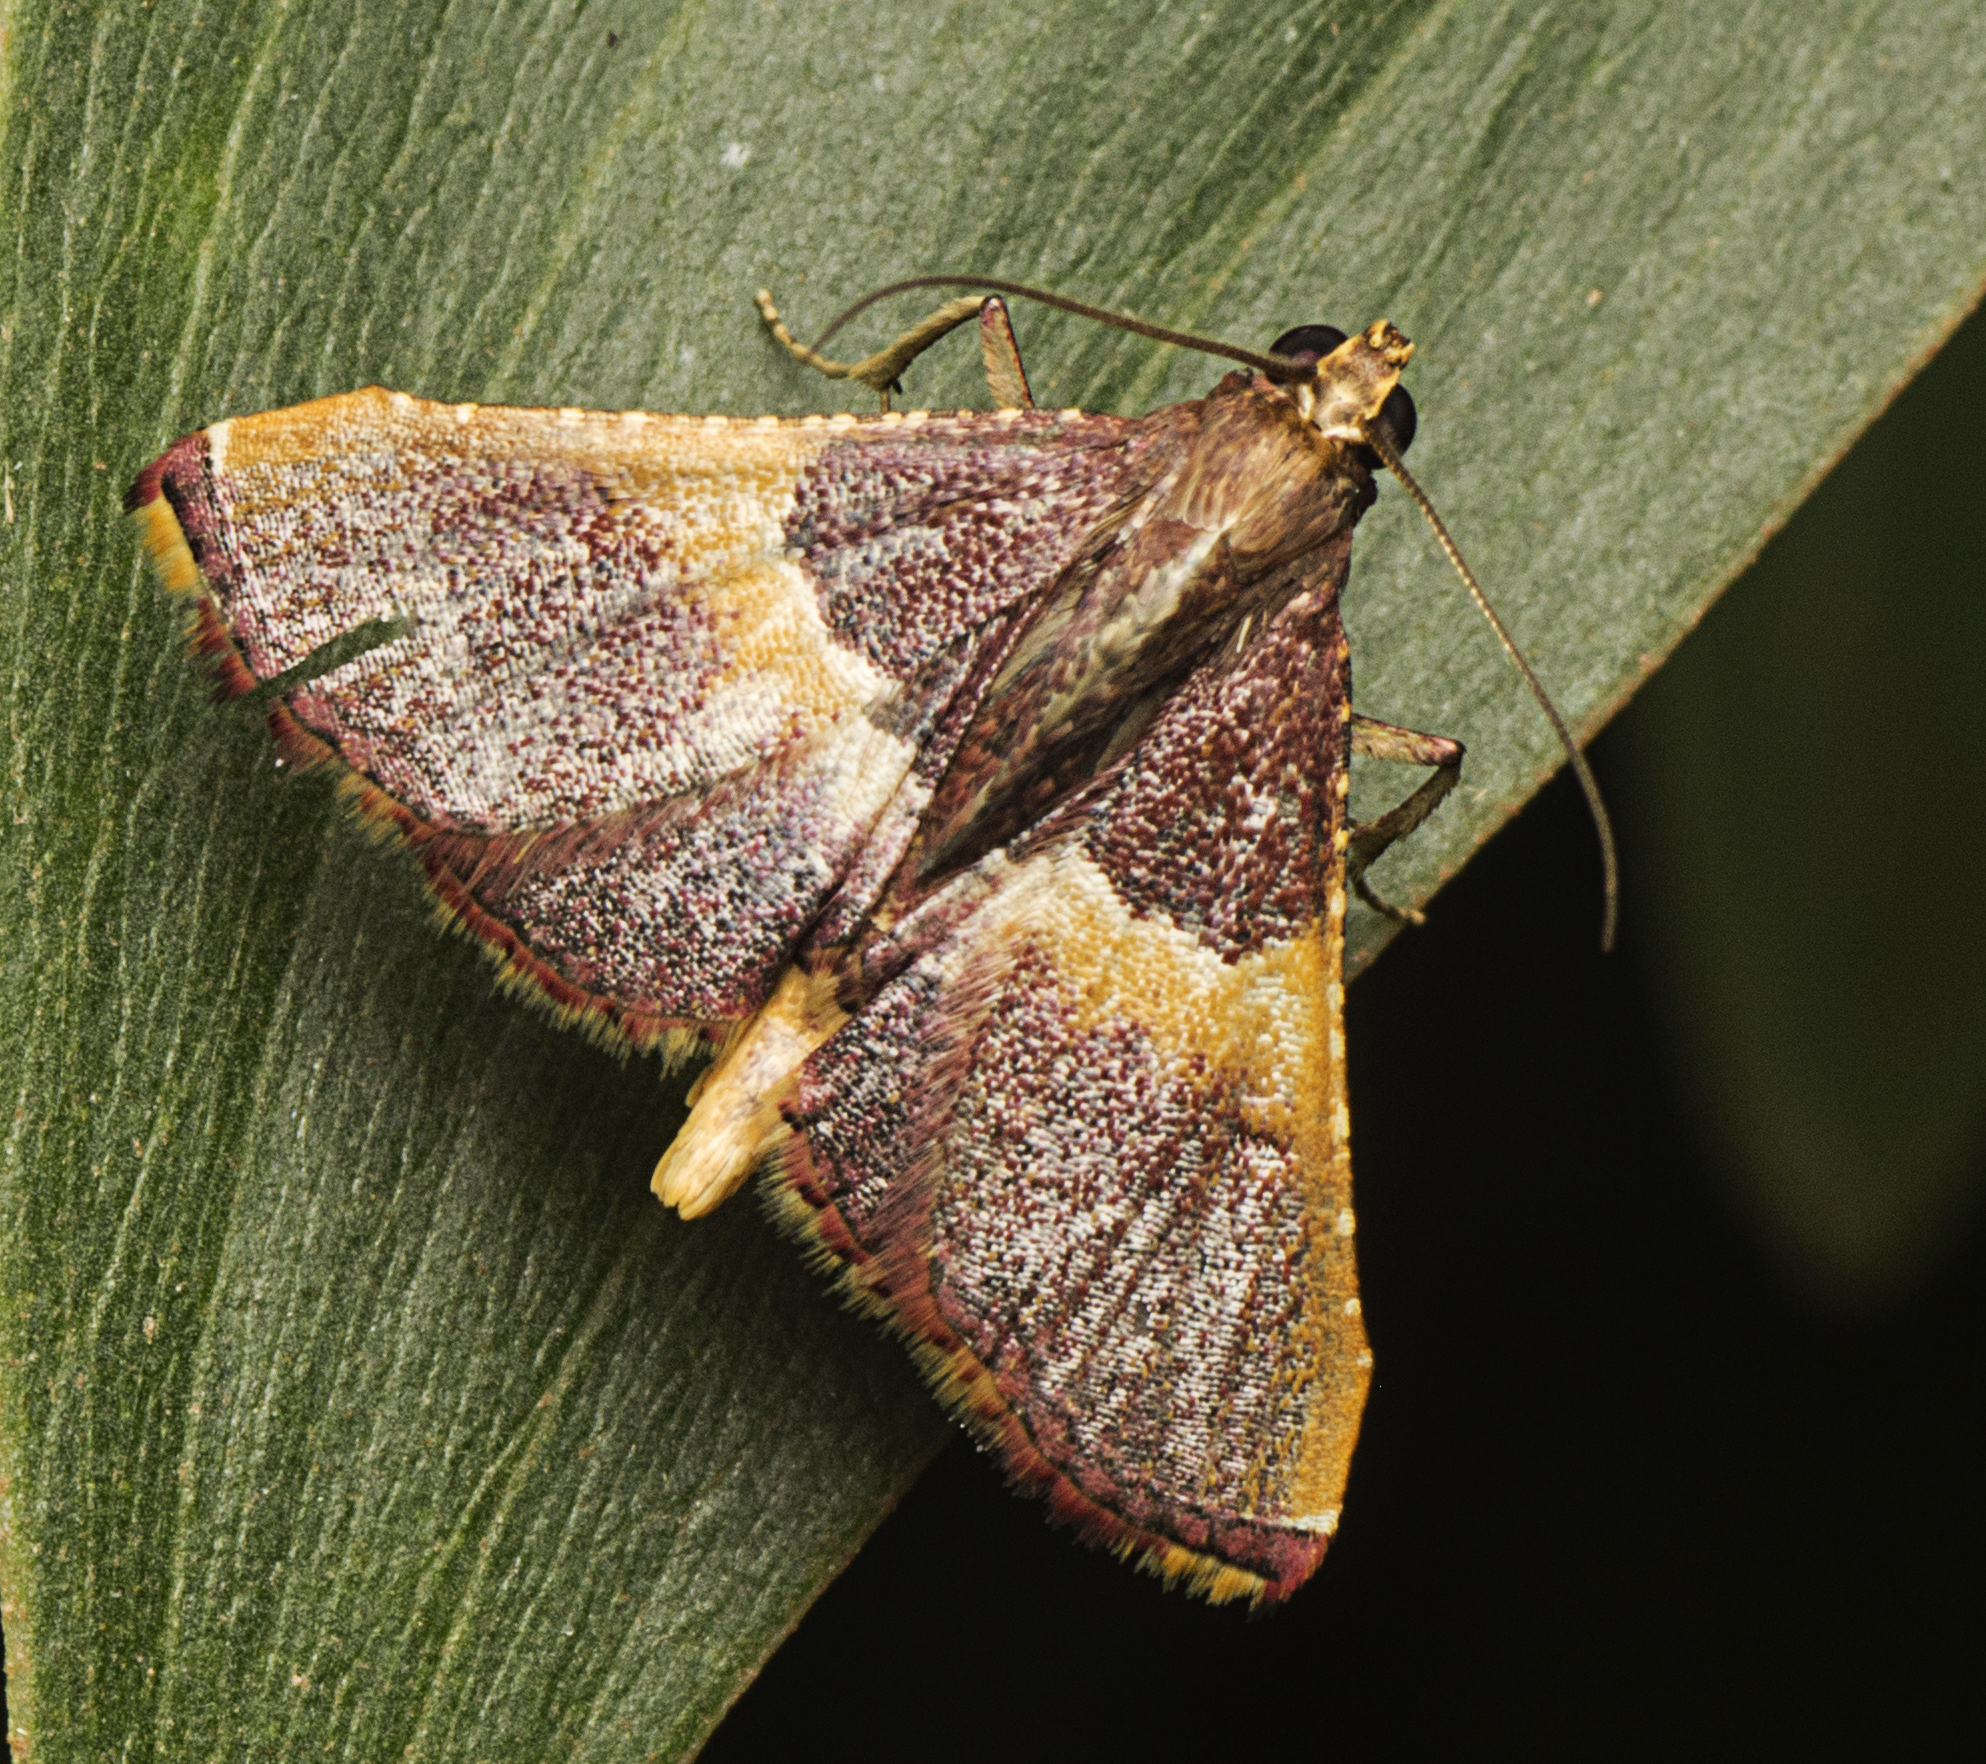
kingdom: Animalia
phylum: Arthropoda
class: Insecta
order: Lepidoptera
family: Pyralidae
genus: Endotricha
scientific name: Endotricha mesenterialis
